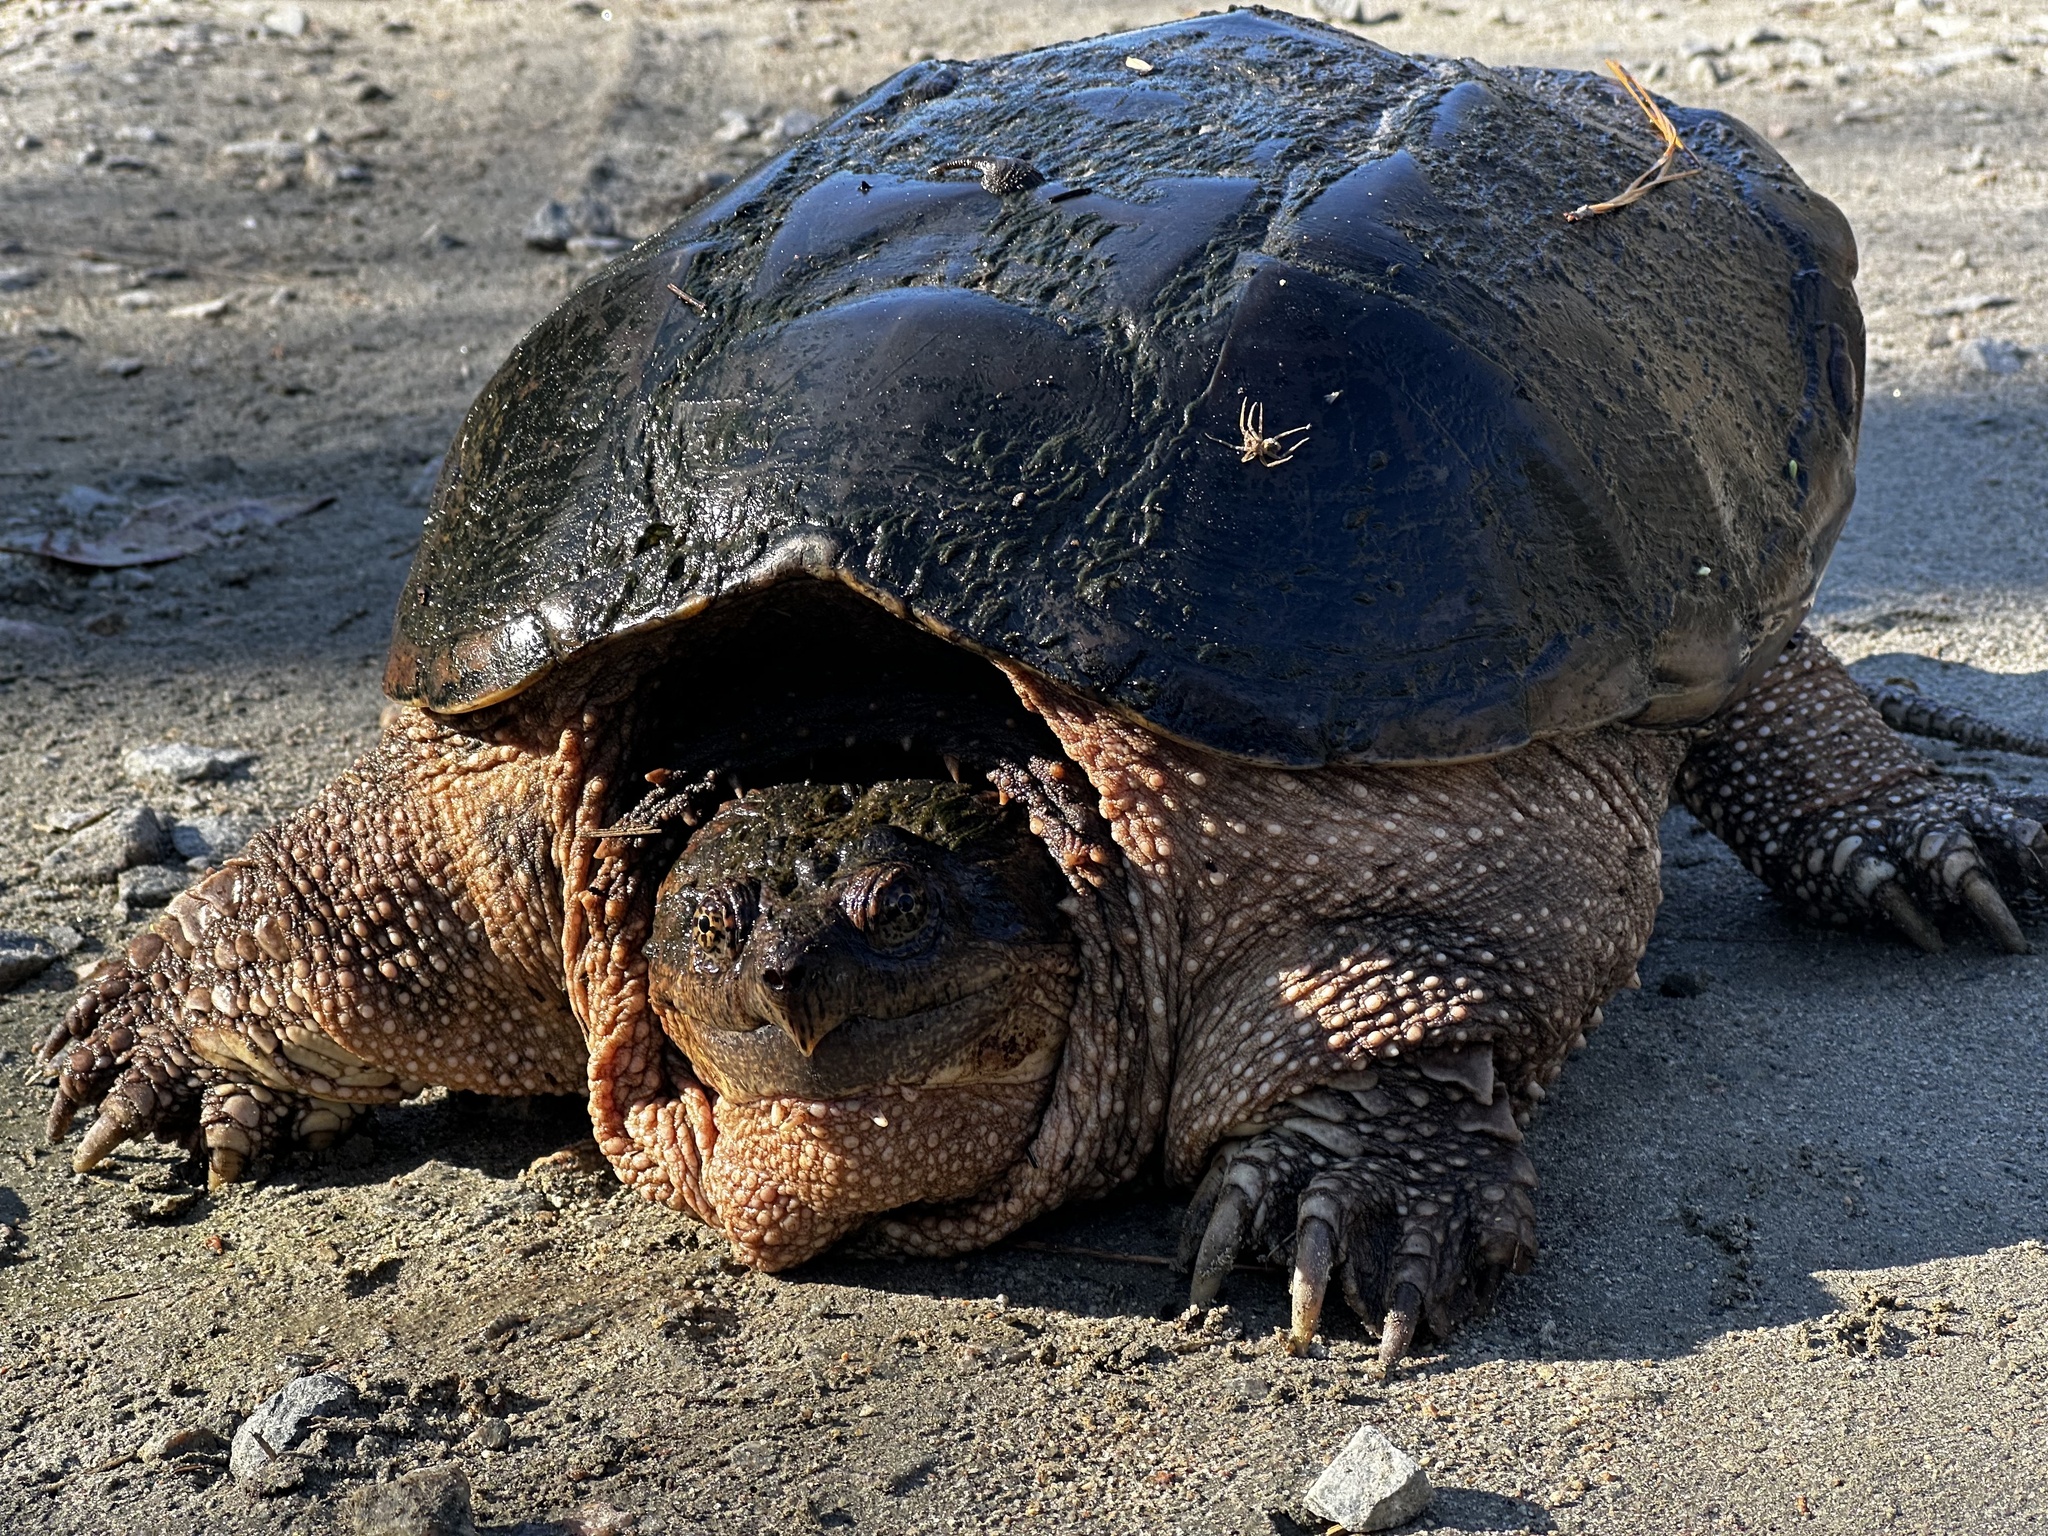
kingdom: Animalia
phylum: Chordata
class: Testudines
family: Chelydridae
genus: Chelydra
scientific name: Chelydra serpentina
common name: Common snapping turtle
